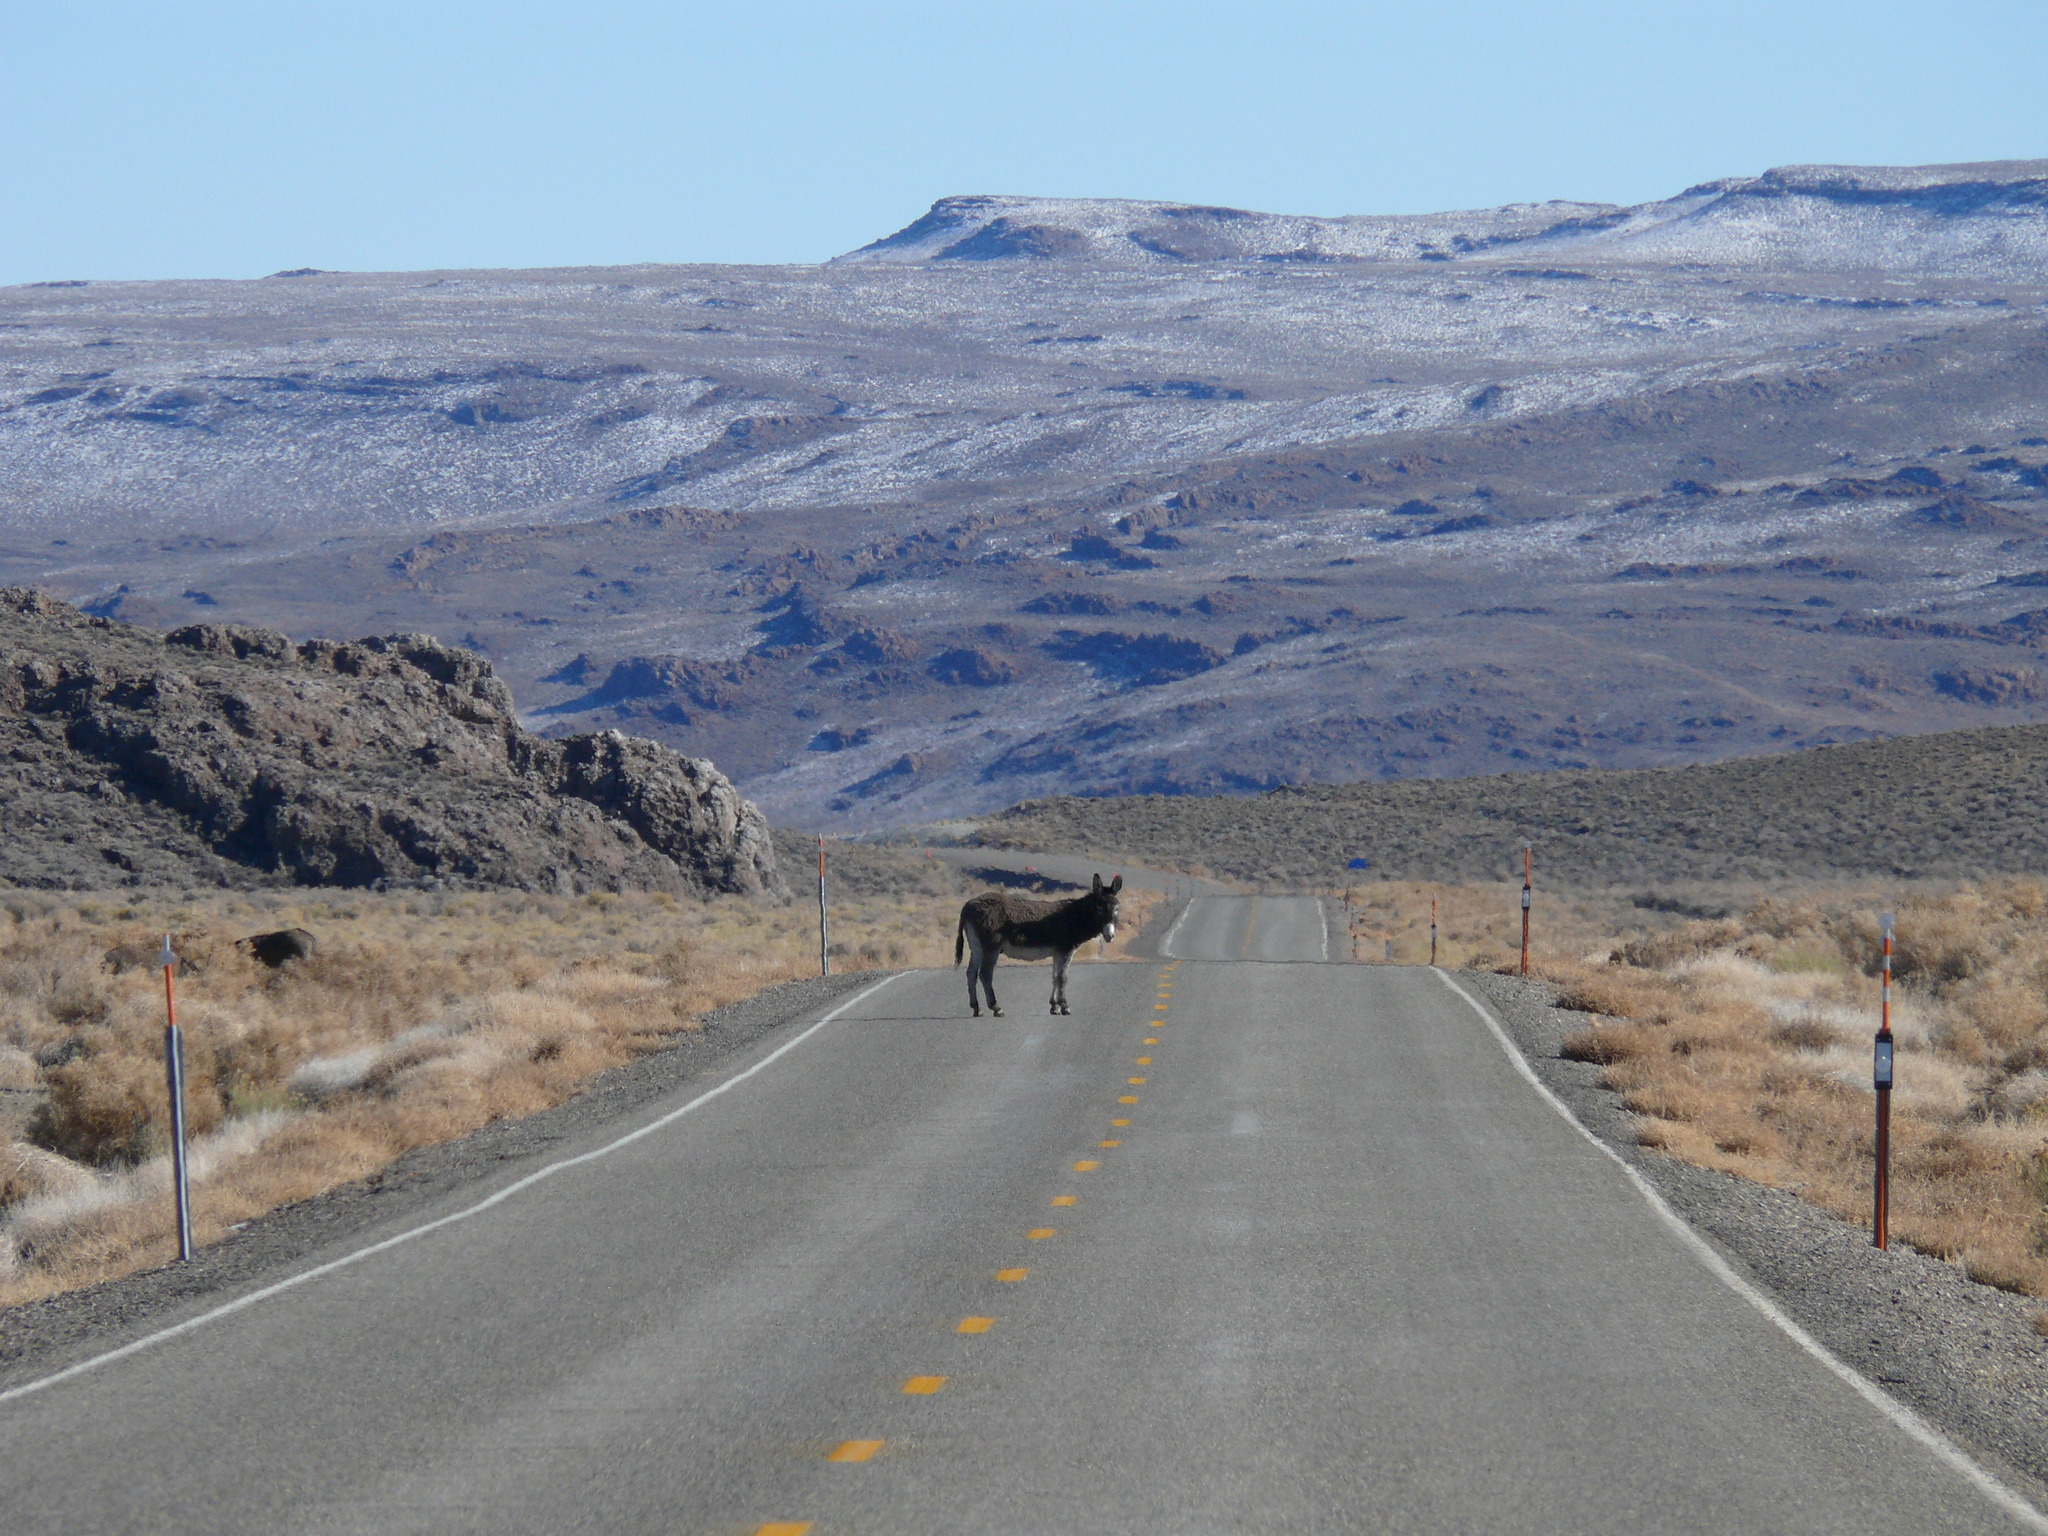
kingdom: Animalia
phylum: Chordata
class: Mammalia
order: Perissodactyla
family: Equidae
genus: Equus
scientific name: Equus asinus
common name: Ass
